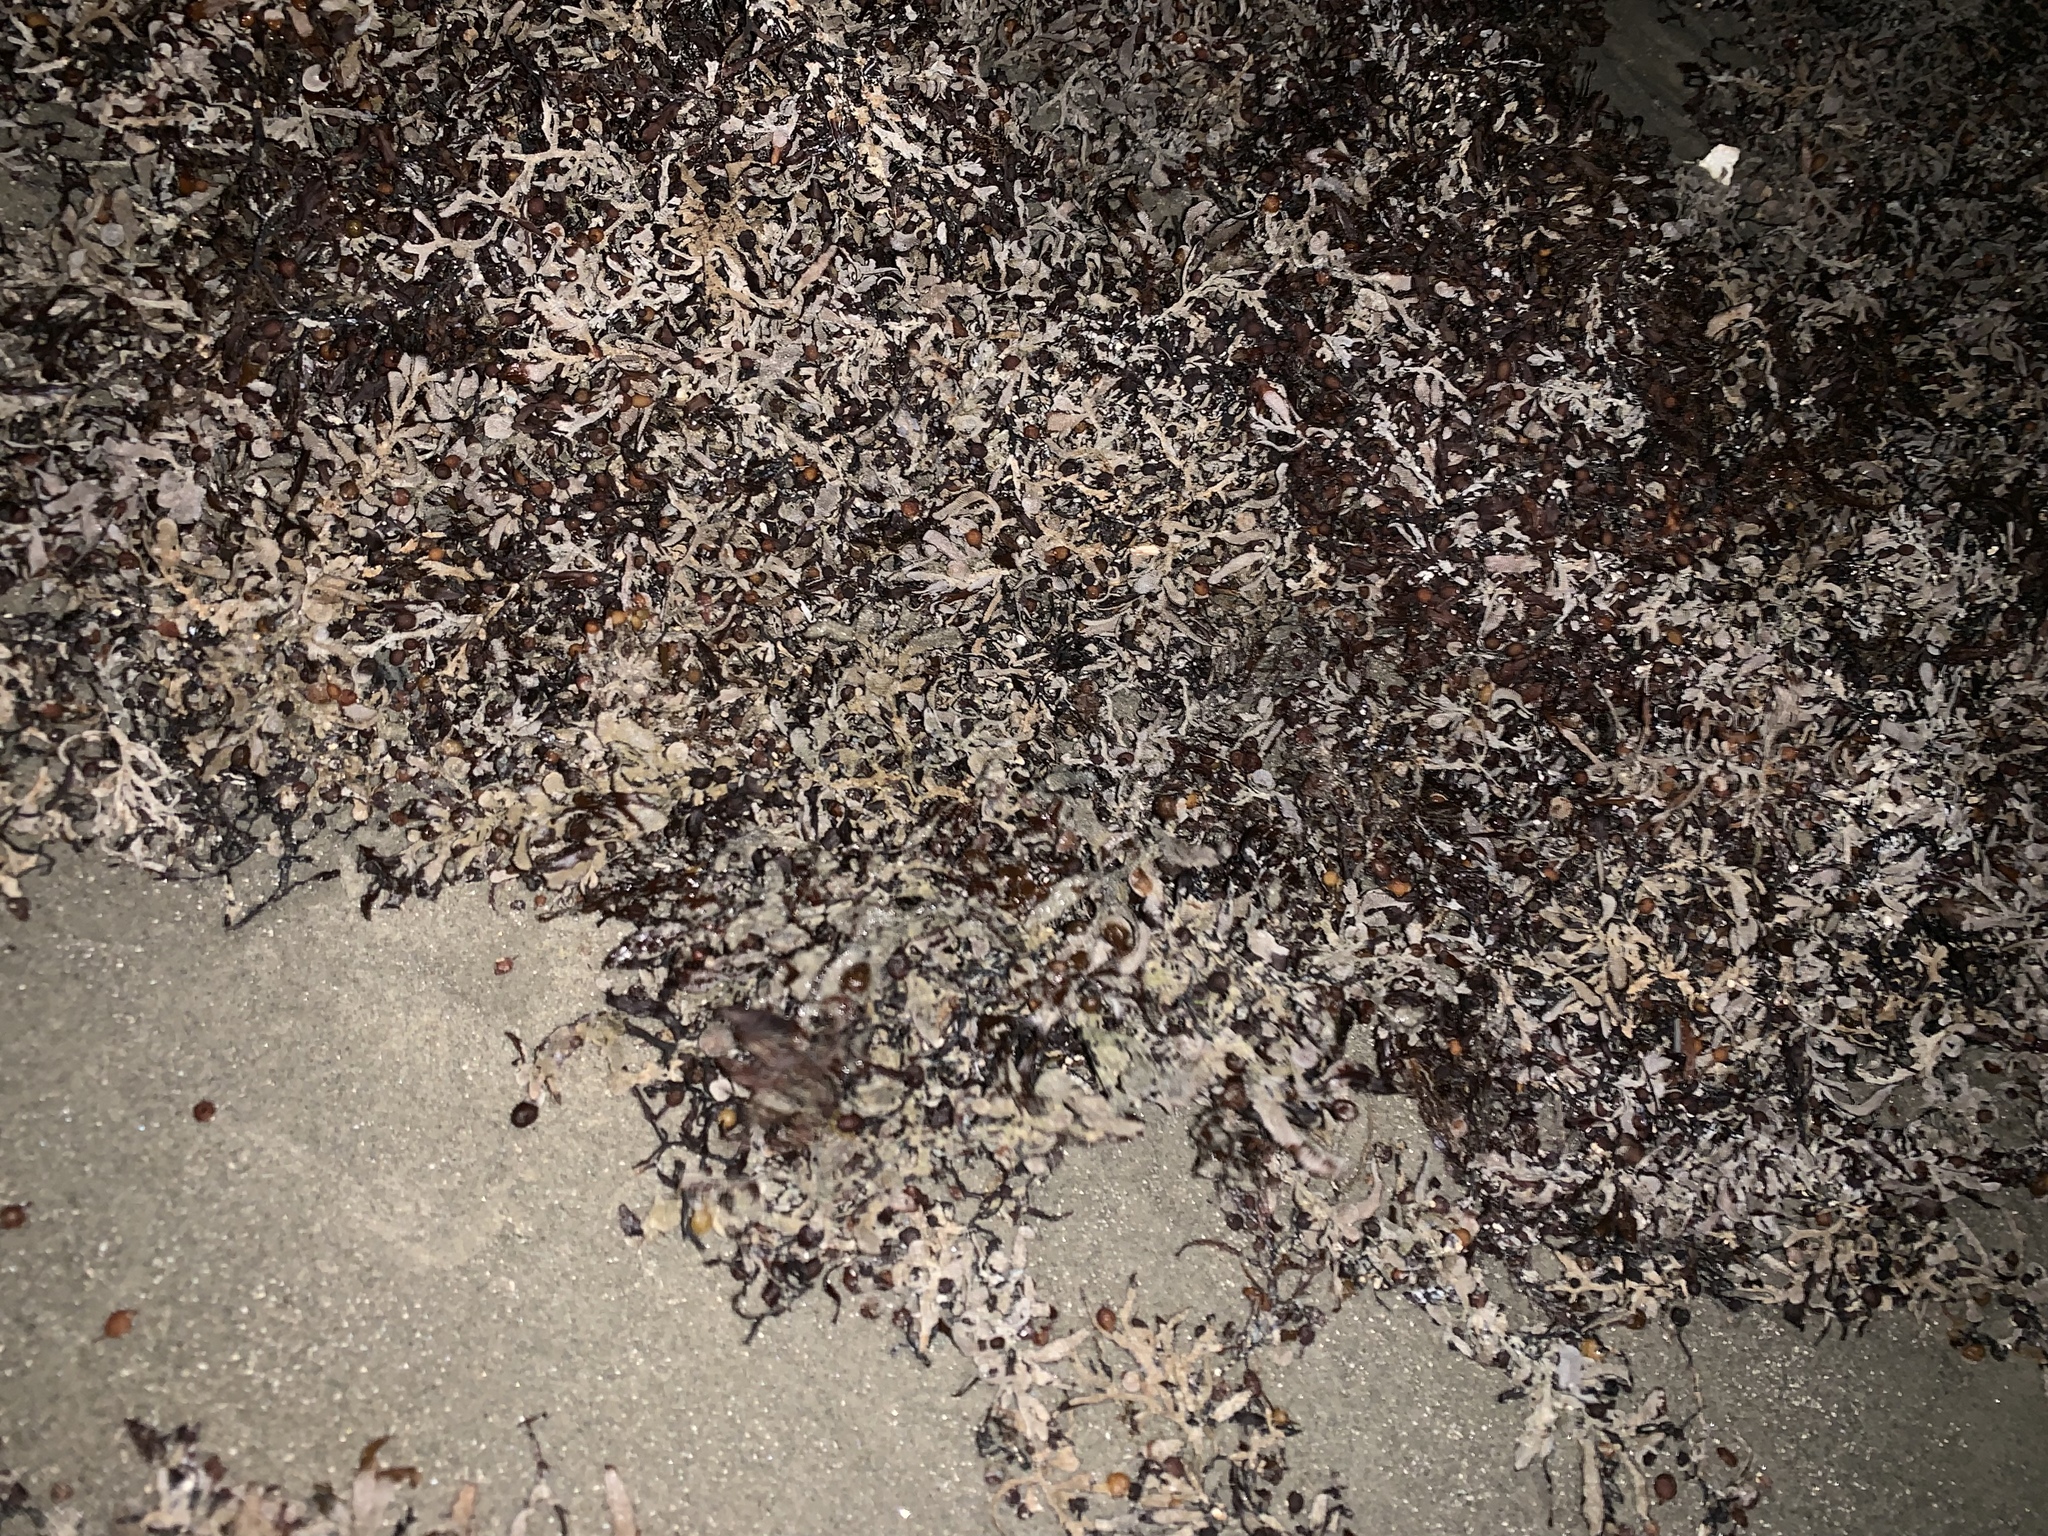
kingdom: Chromista
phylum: Ochrophyta
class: Phaeophyceae
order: Fucales
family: Sargassaceae
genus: Sargassum
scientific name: Sargassum fluitans
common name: Sargassum seaweed
